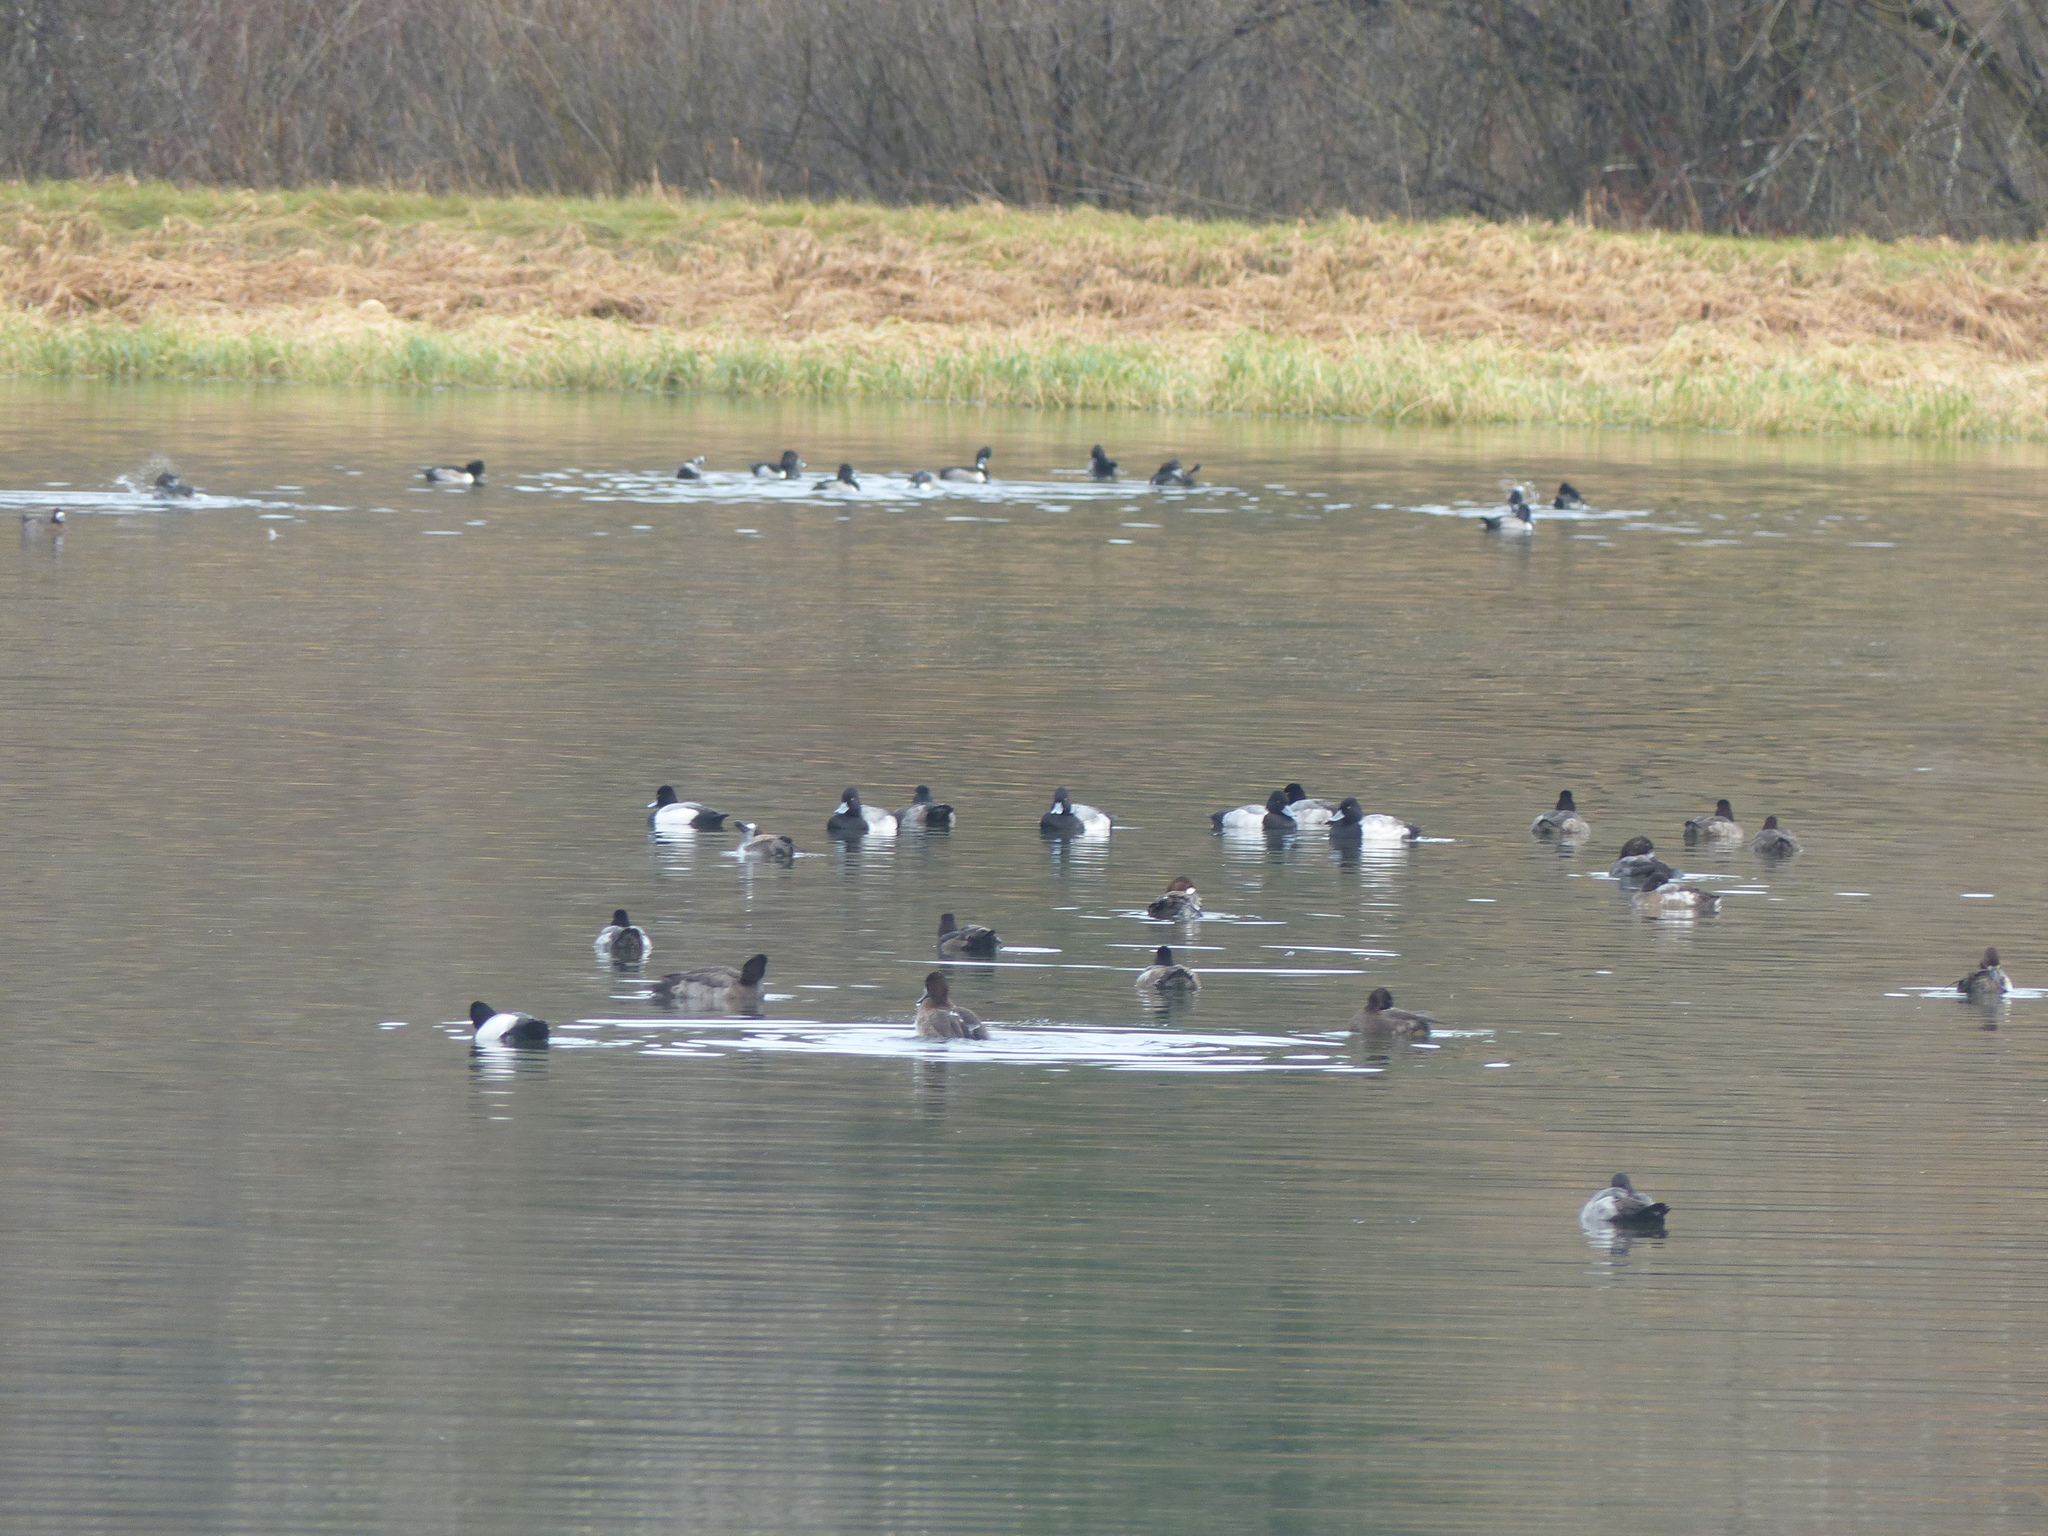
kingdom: Animalia
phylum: Chordata
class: Aves
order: Anseriformes
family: Anatidae
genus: Aythya
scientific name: Aythya affinis
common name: Lesser scaup
